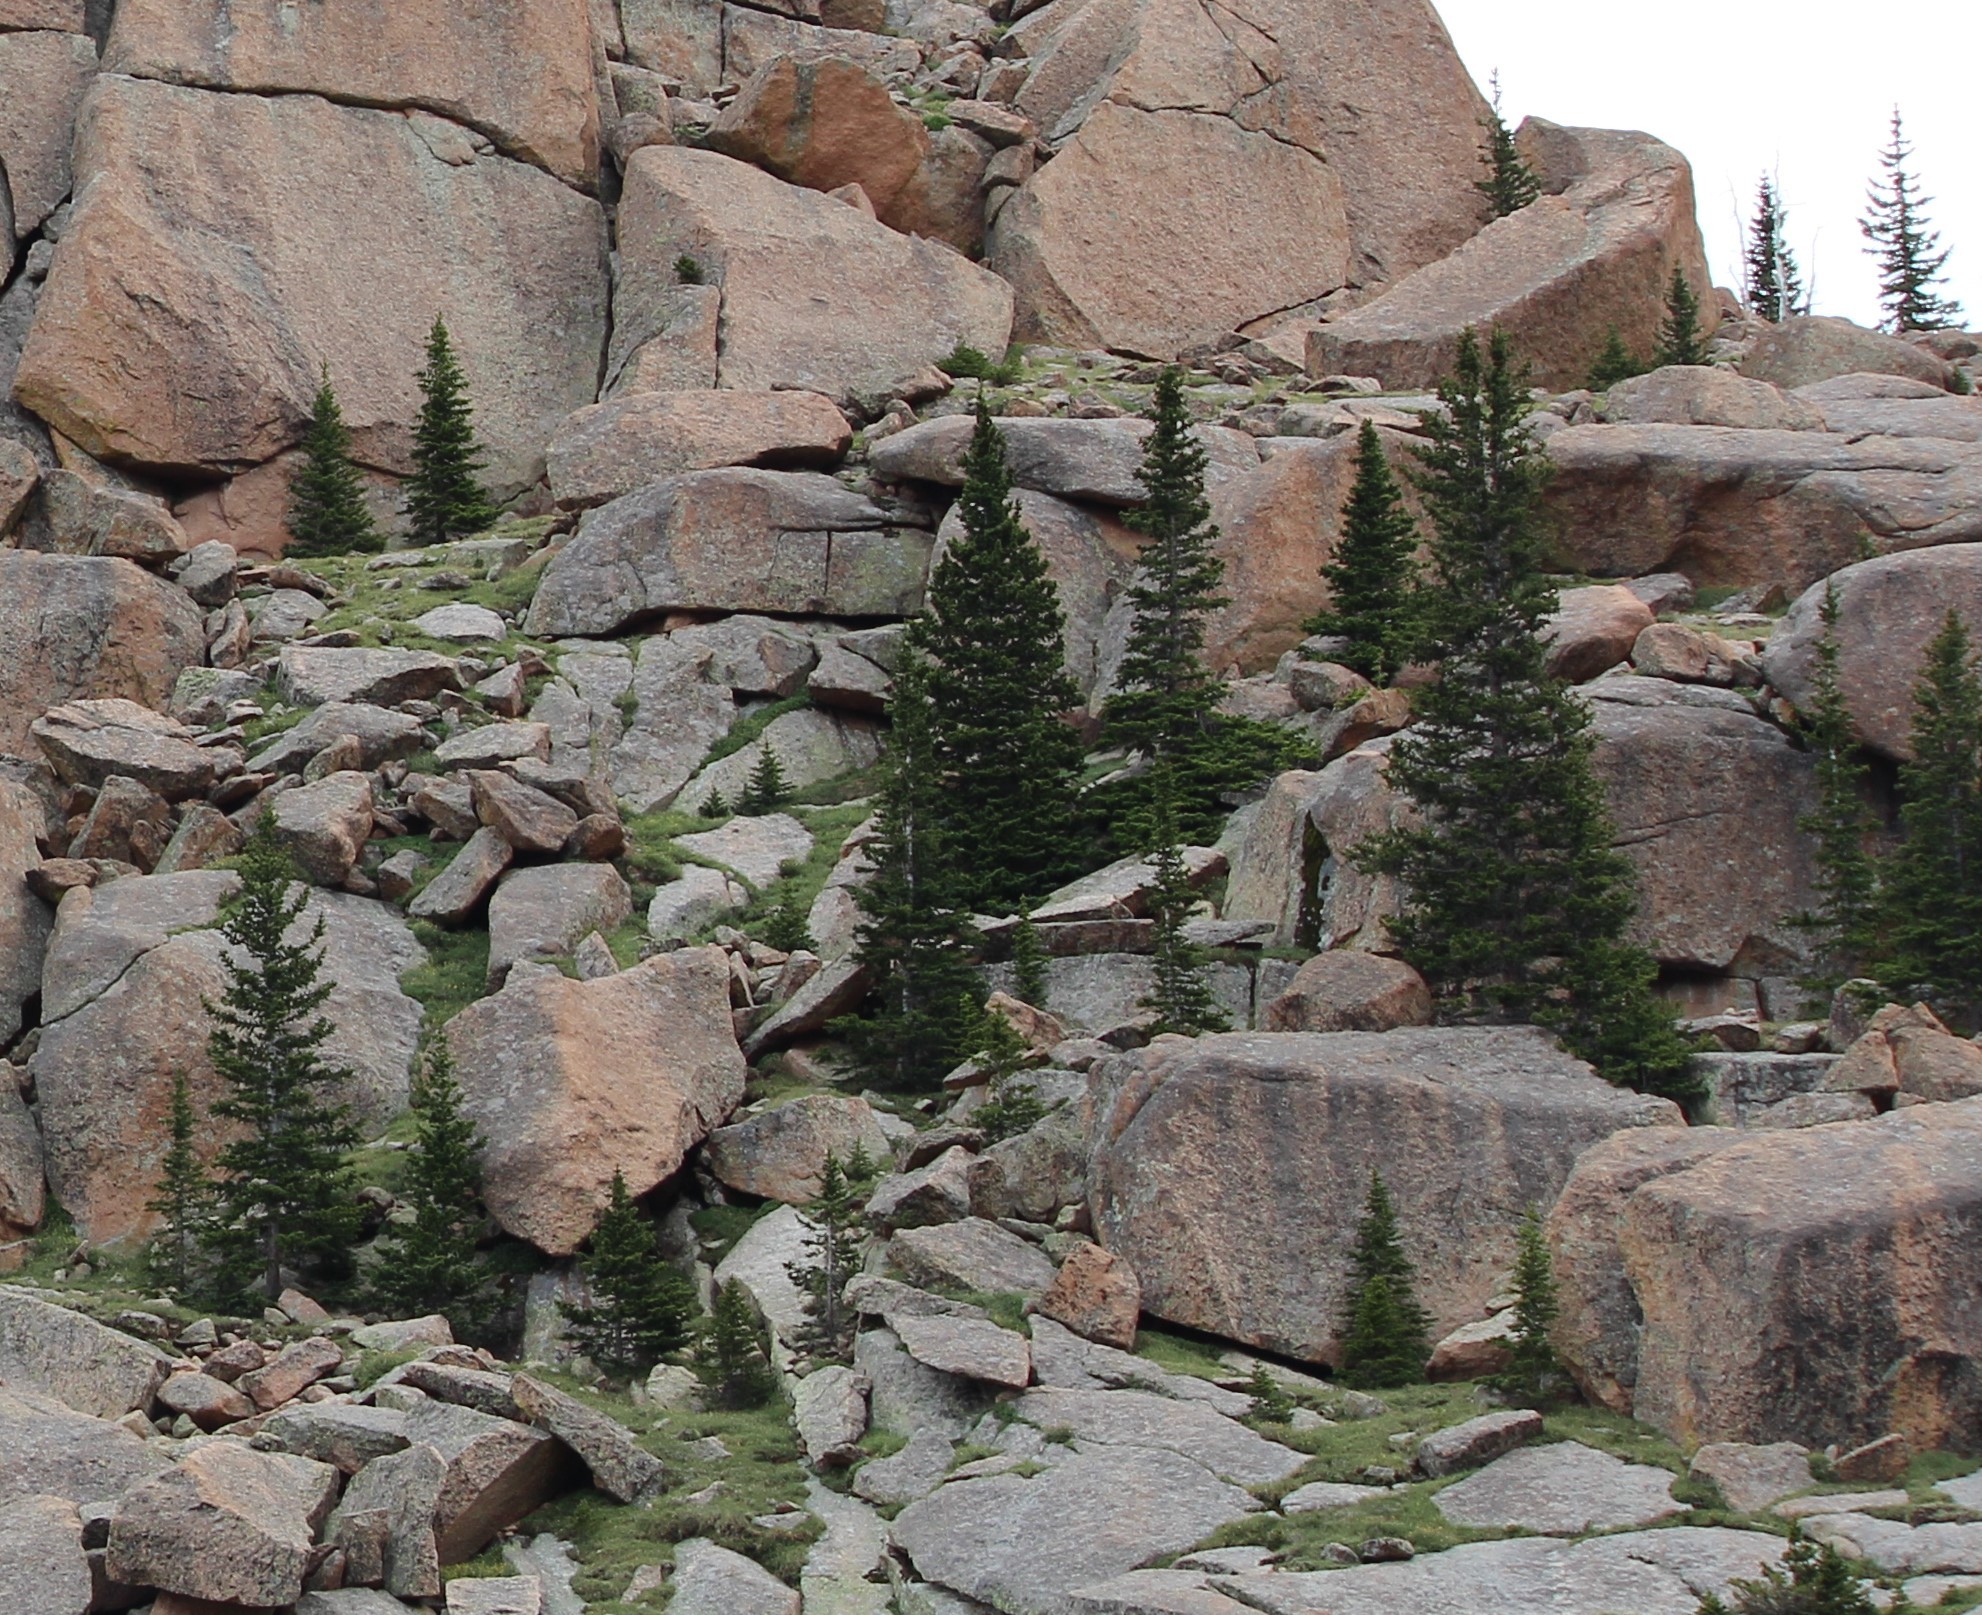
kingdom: Plantae
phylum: Tracheophyta
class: Pinopsida
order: Pinales
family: Pinaceae
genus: Abies
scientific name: Abies lasiocarpa
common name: Subalpine fir
